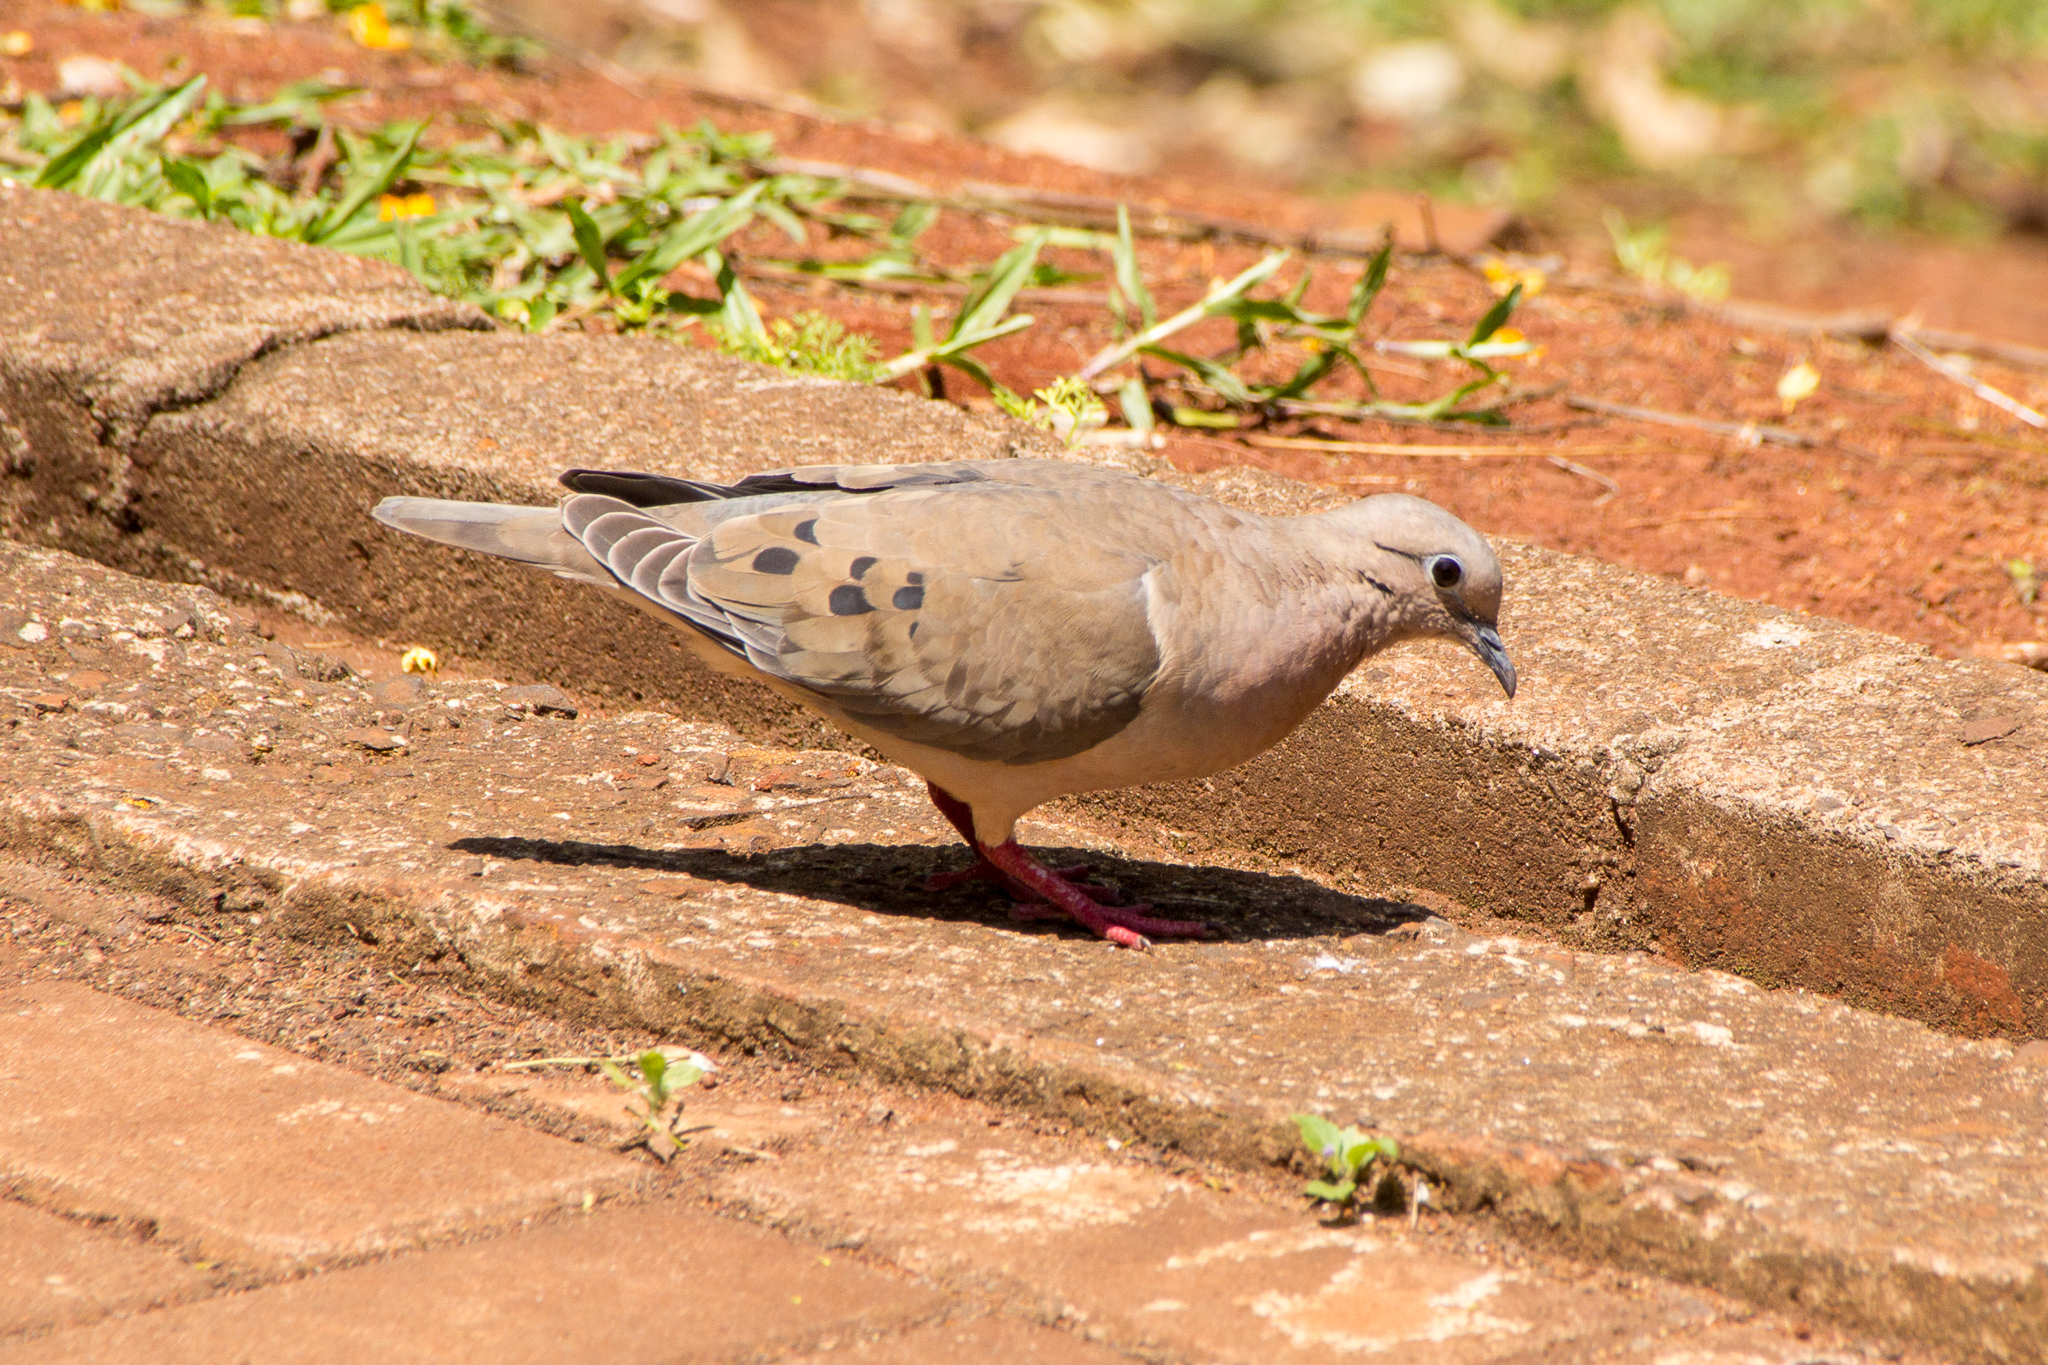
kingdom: Animalia
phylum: Chordata
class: Aves
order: Columbiformes
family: Columbidae
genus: Zenaida
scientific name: Zenaida auriculata
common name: Eared dove
